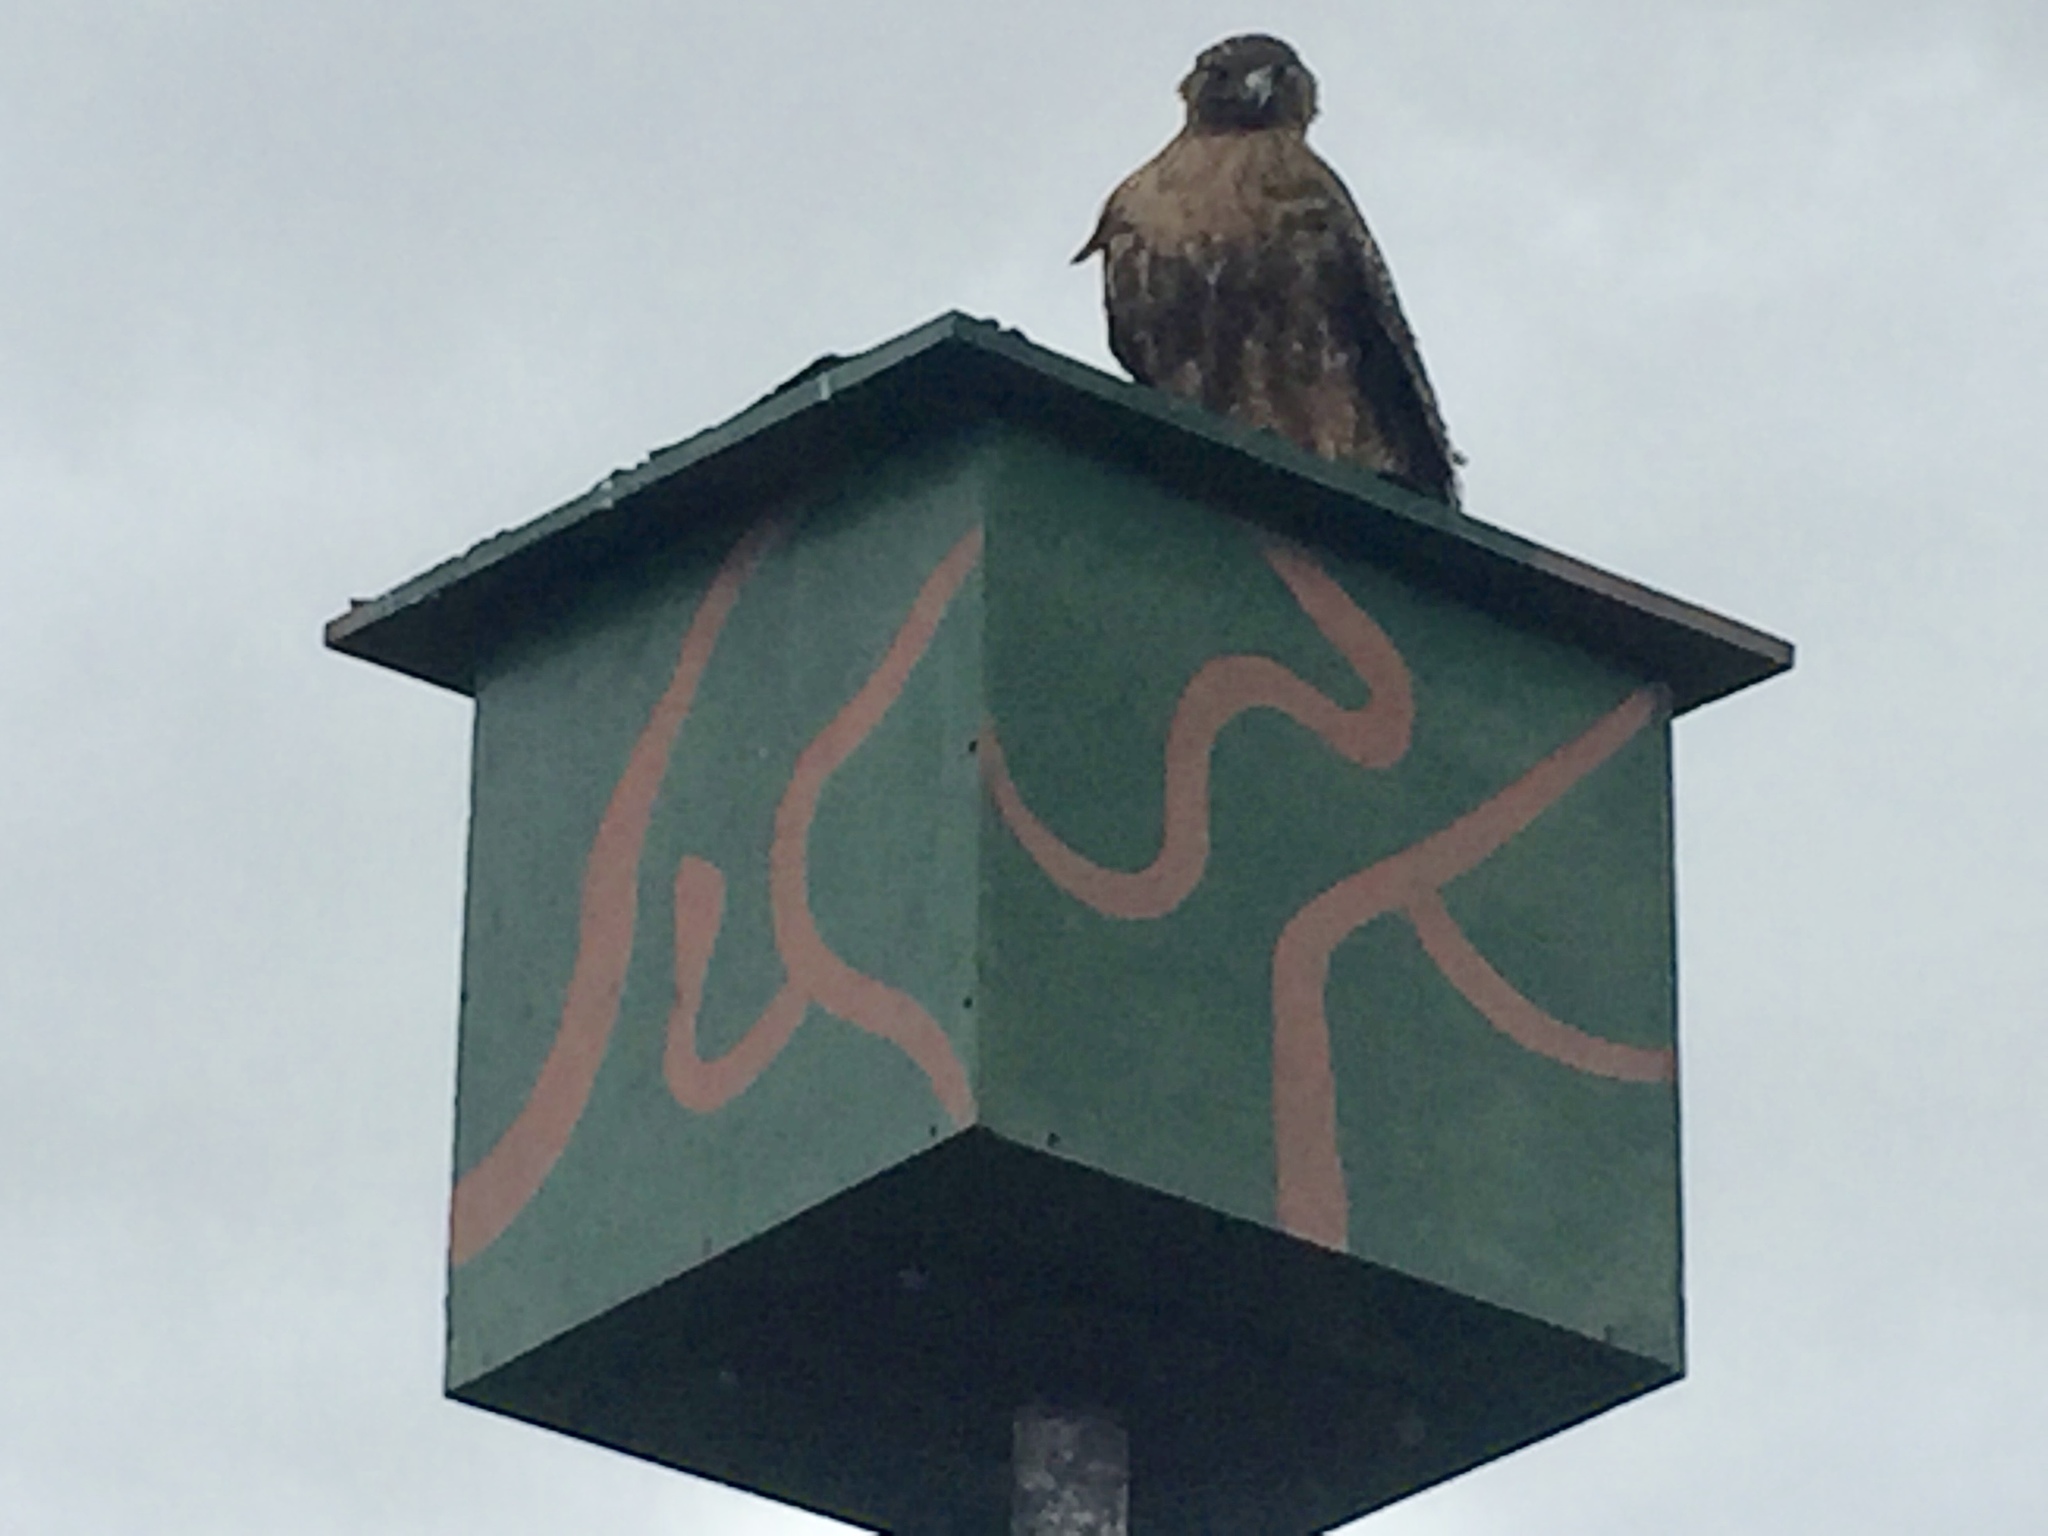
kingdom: Animalia
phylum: Chordata
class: Aves
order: Accipitriformes
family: Accipitridae
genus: Buteo
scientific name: Buteo jamaicensis
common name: Red-tailed hawk
